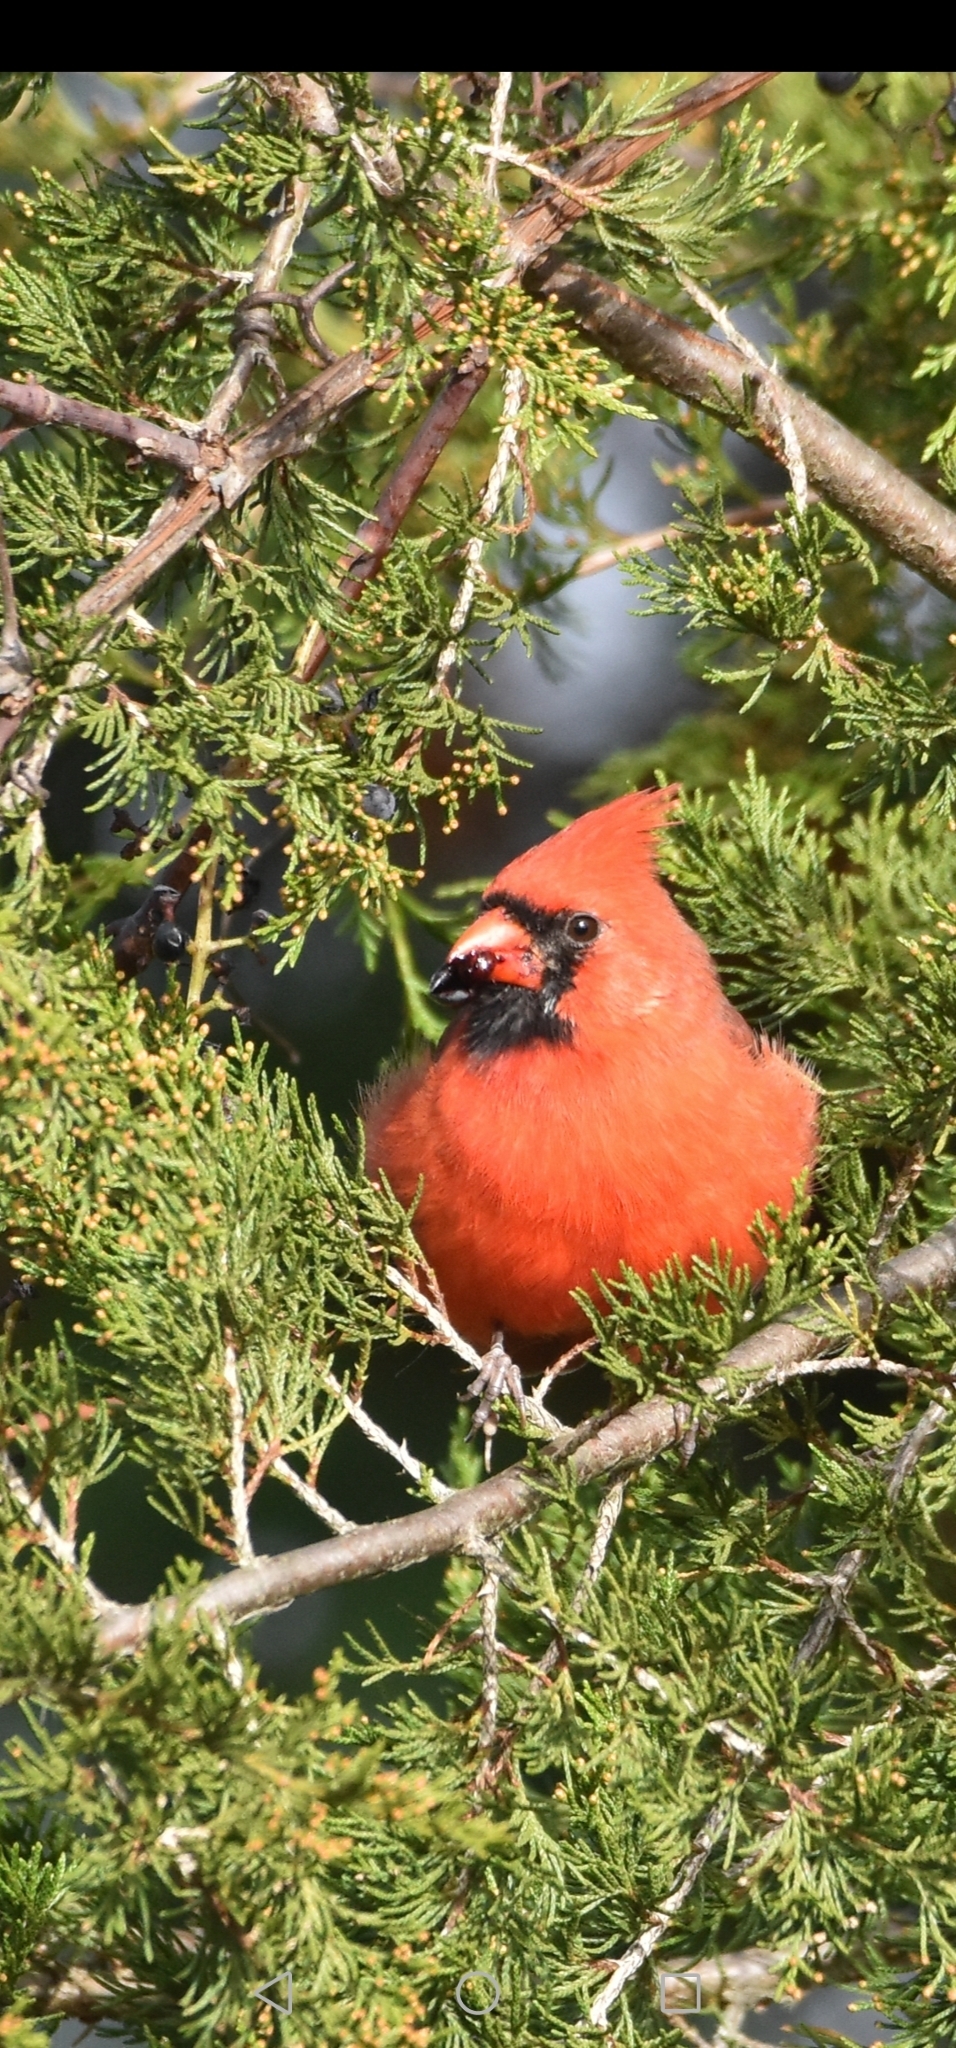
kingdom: Animalia
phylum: Chordata
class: Aves
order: Passeriformes
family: Cardinalidae
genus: Cardinalis
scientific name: Cardinalis cardinalis
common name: Northern cardinal
